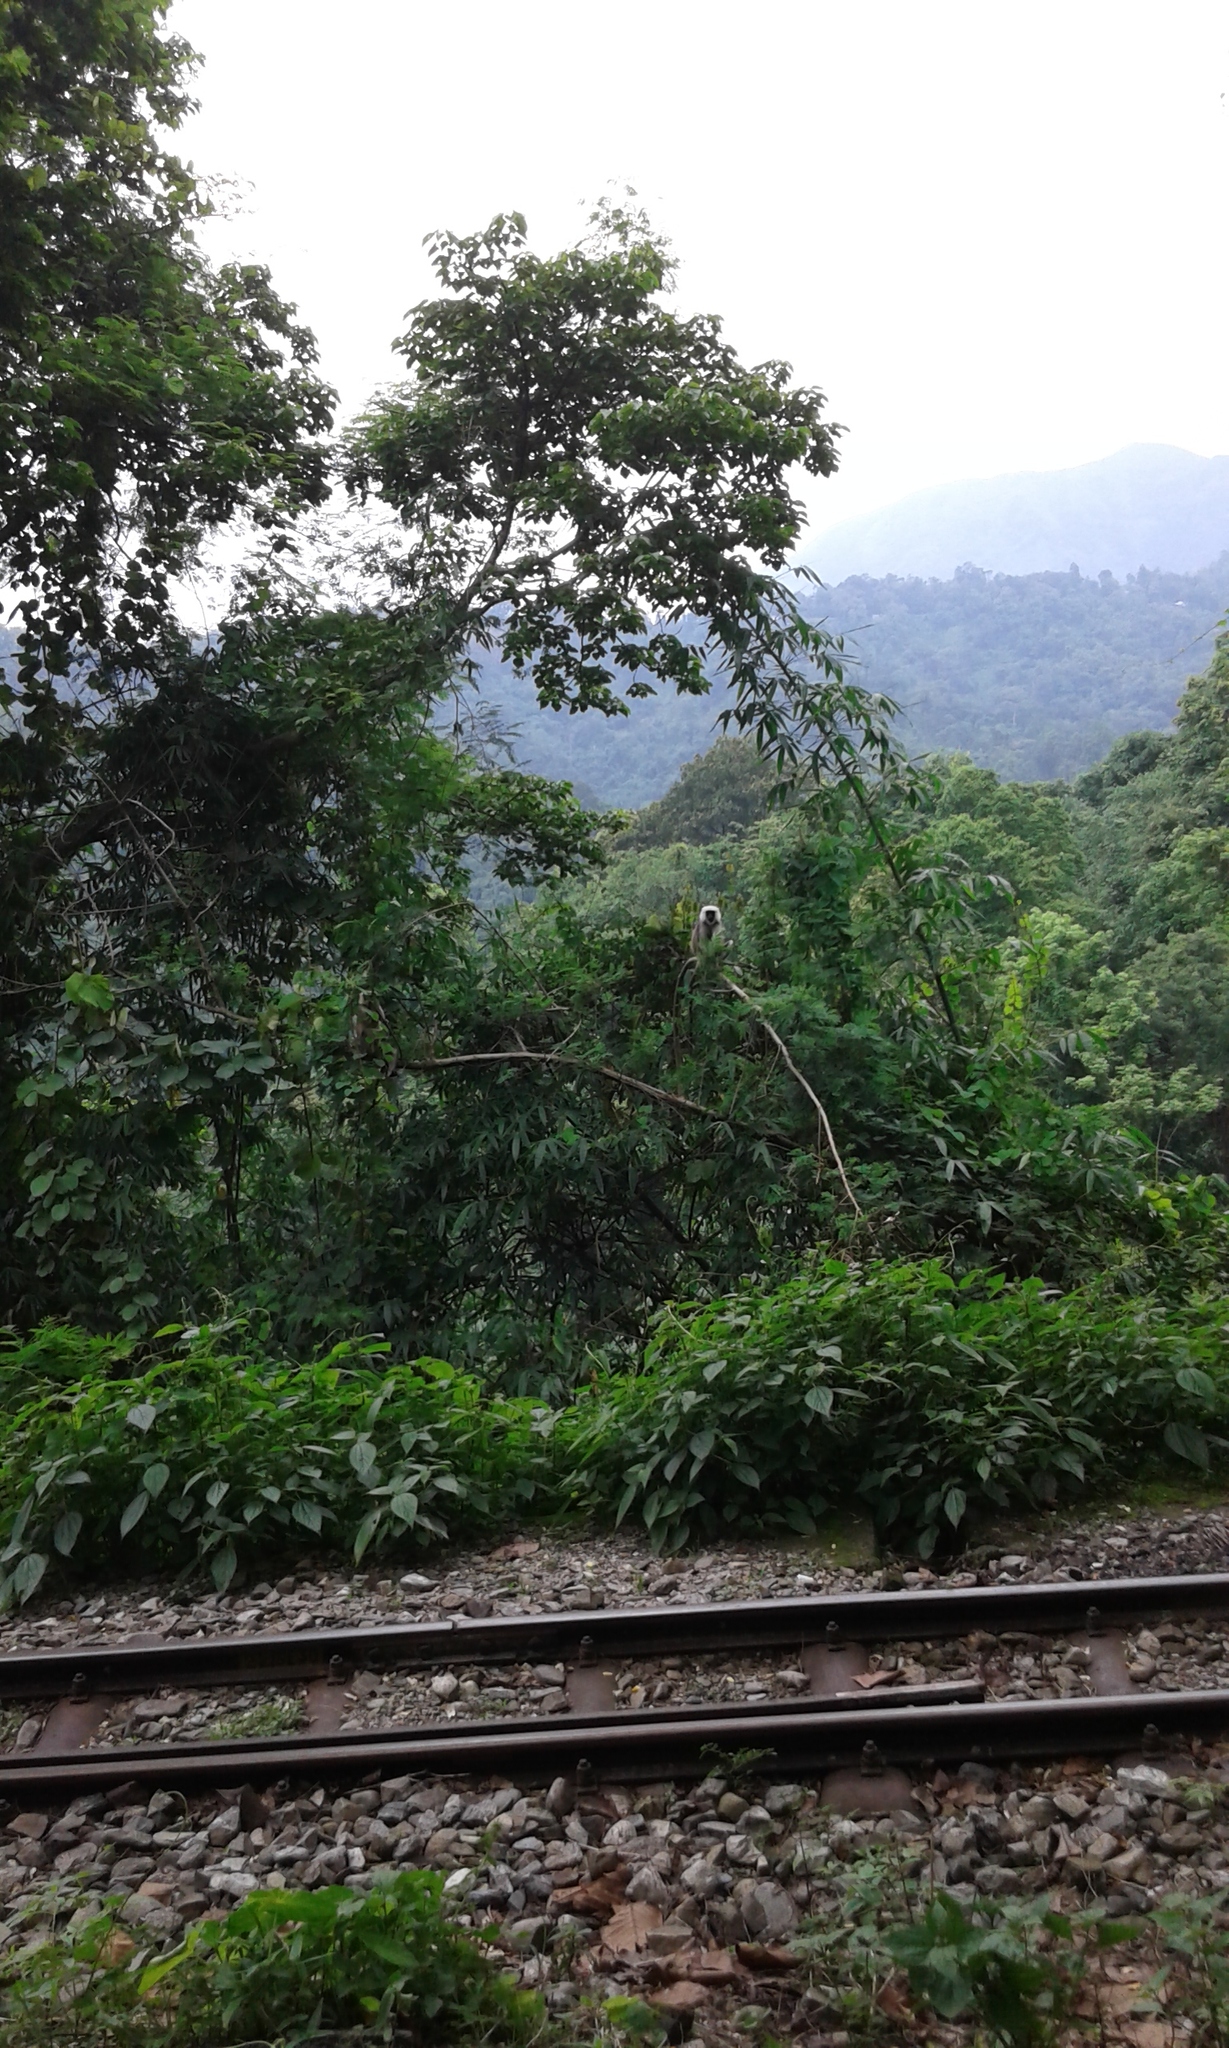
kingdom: Animalia
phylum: Chordata
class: Mammalia
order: Primates
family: Cercopithecidae
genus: Semnopithecus
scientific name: Semnopithecus schistaceus
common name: Nepal gray langur
